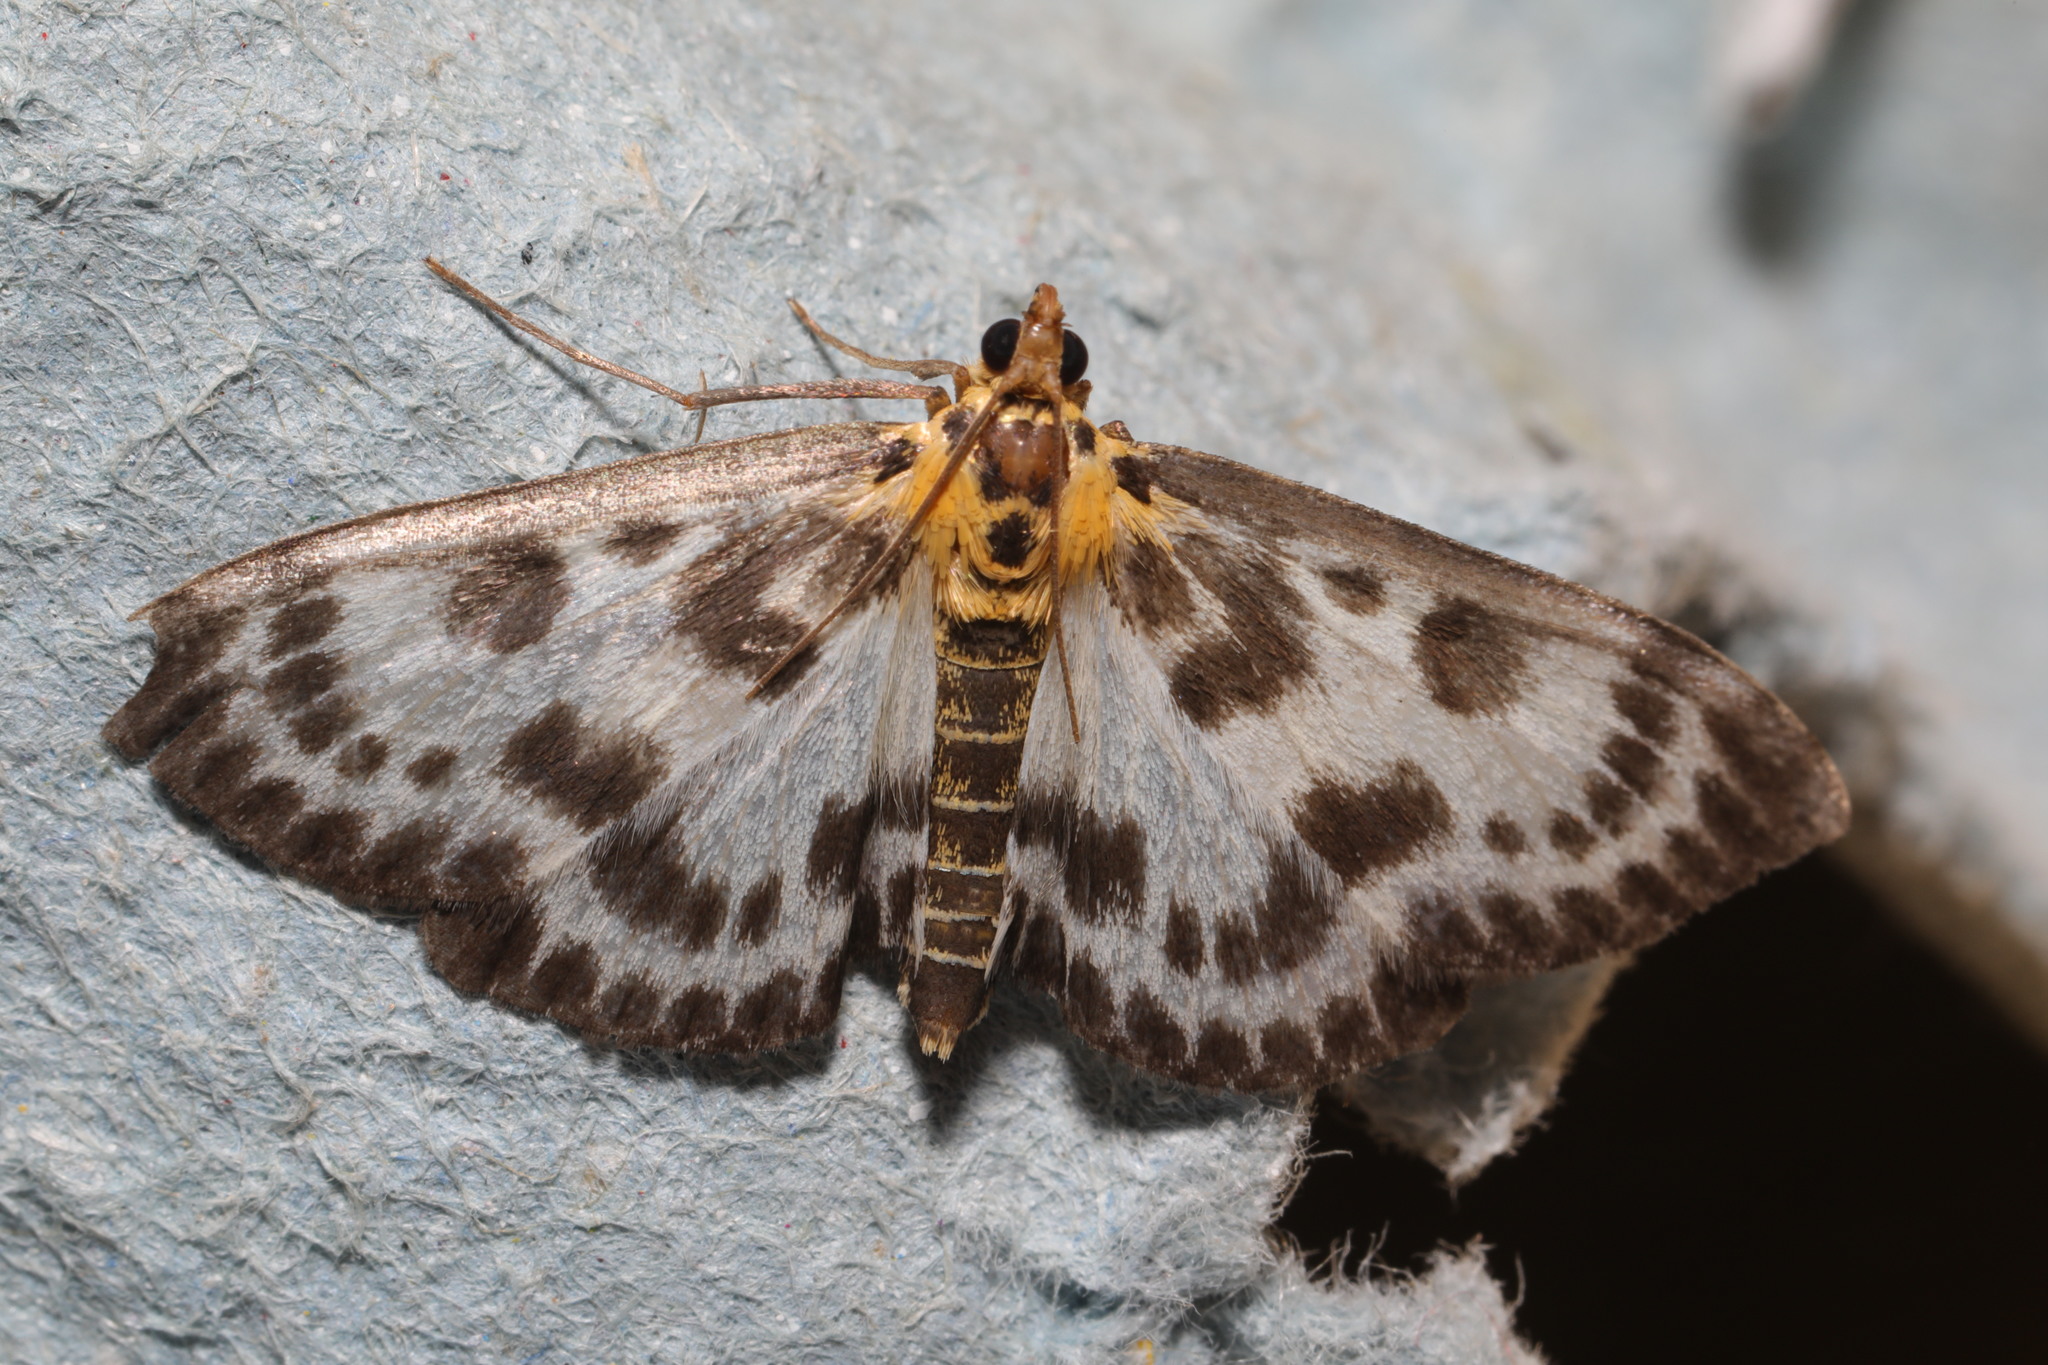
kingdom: Animalia
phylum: Arthropoda
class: Insecta
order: Lepidoptera
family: Crambidae
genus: Anania
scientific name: Anania hortulata
